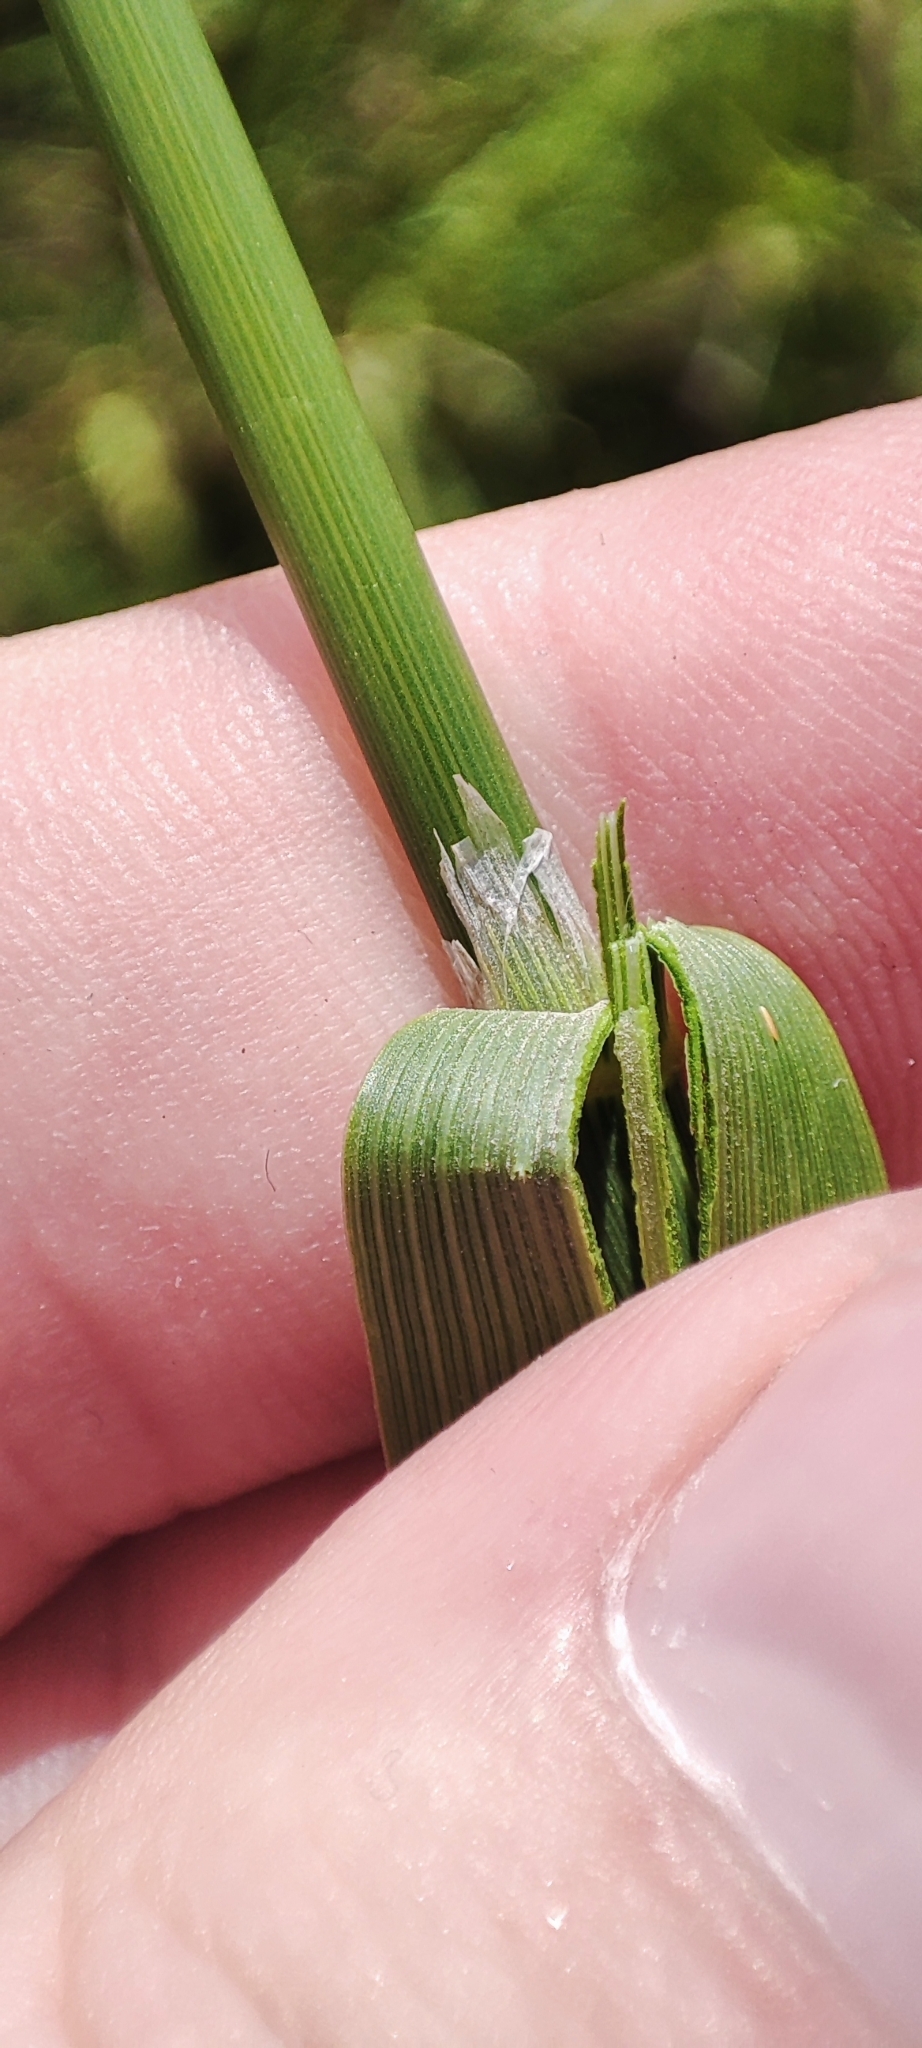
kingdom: Plantae
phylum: Tracheophyta
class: Liliopsida
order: Poales
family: Poaceae
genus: Glyceria
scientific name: Glyceria maxima
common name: Reed mannagrass
